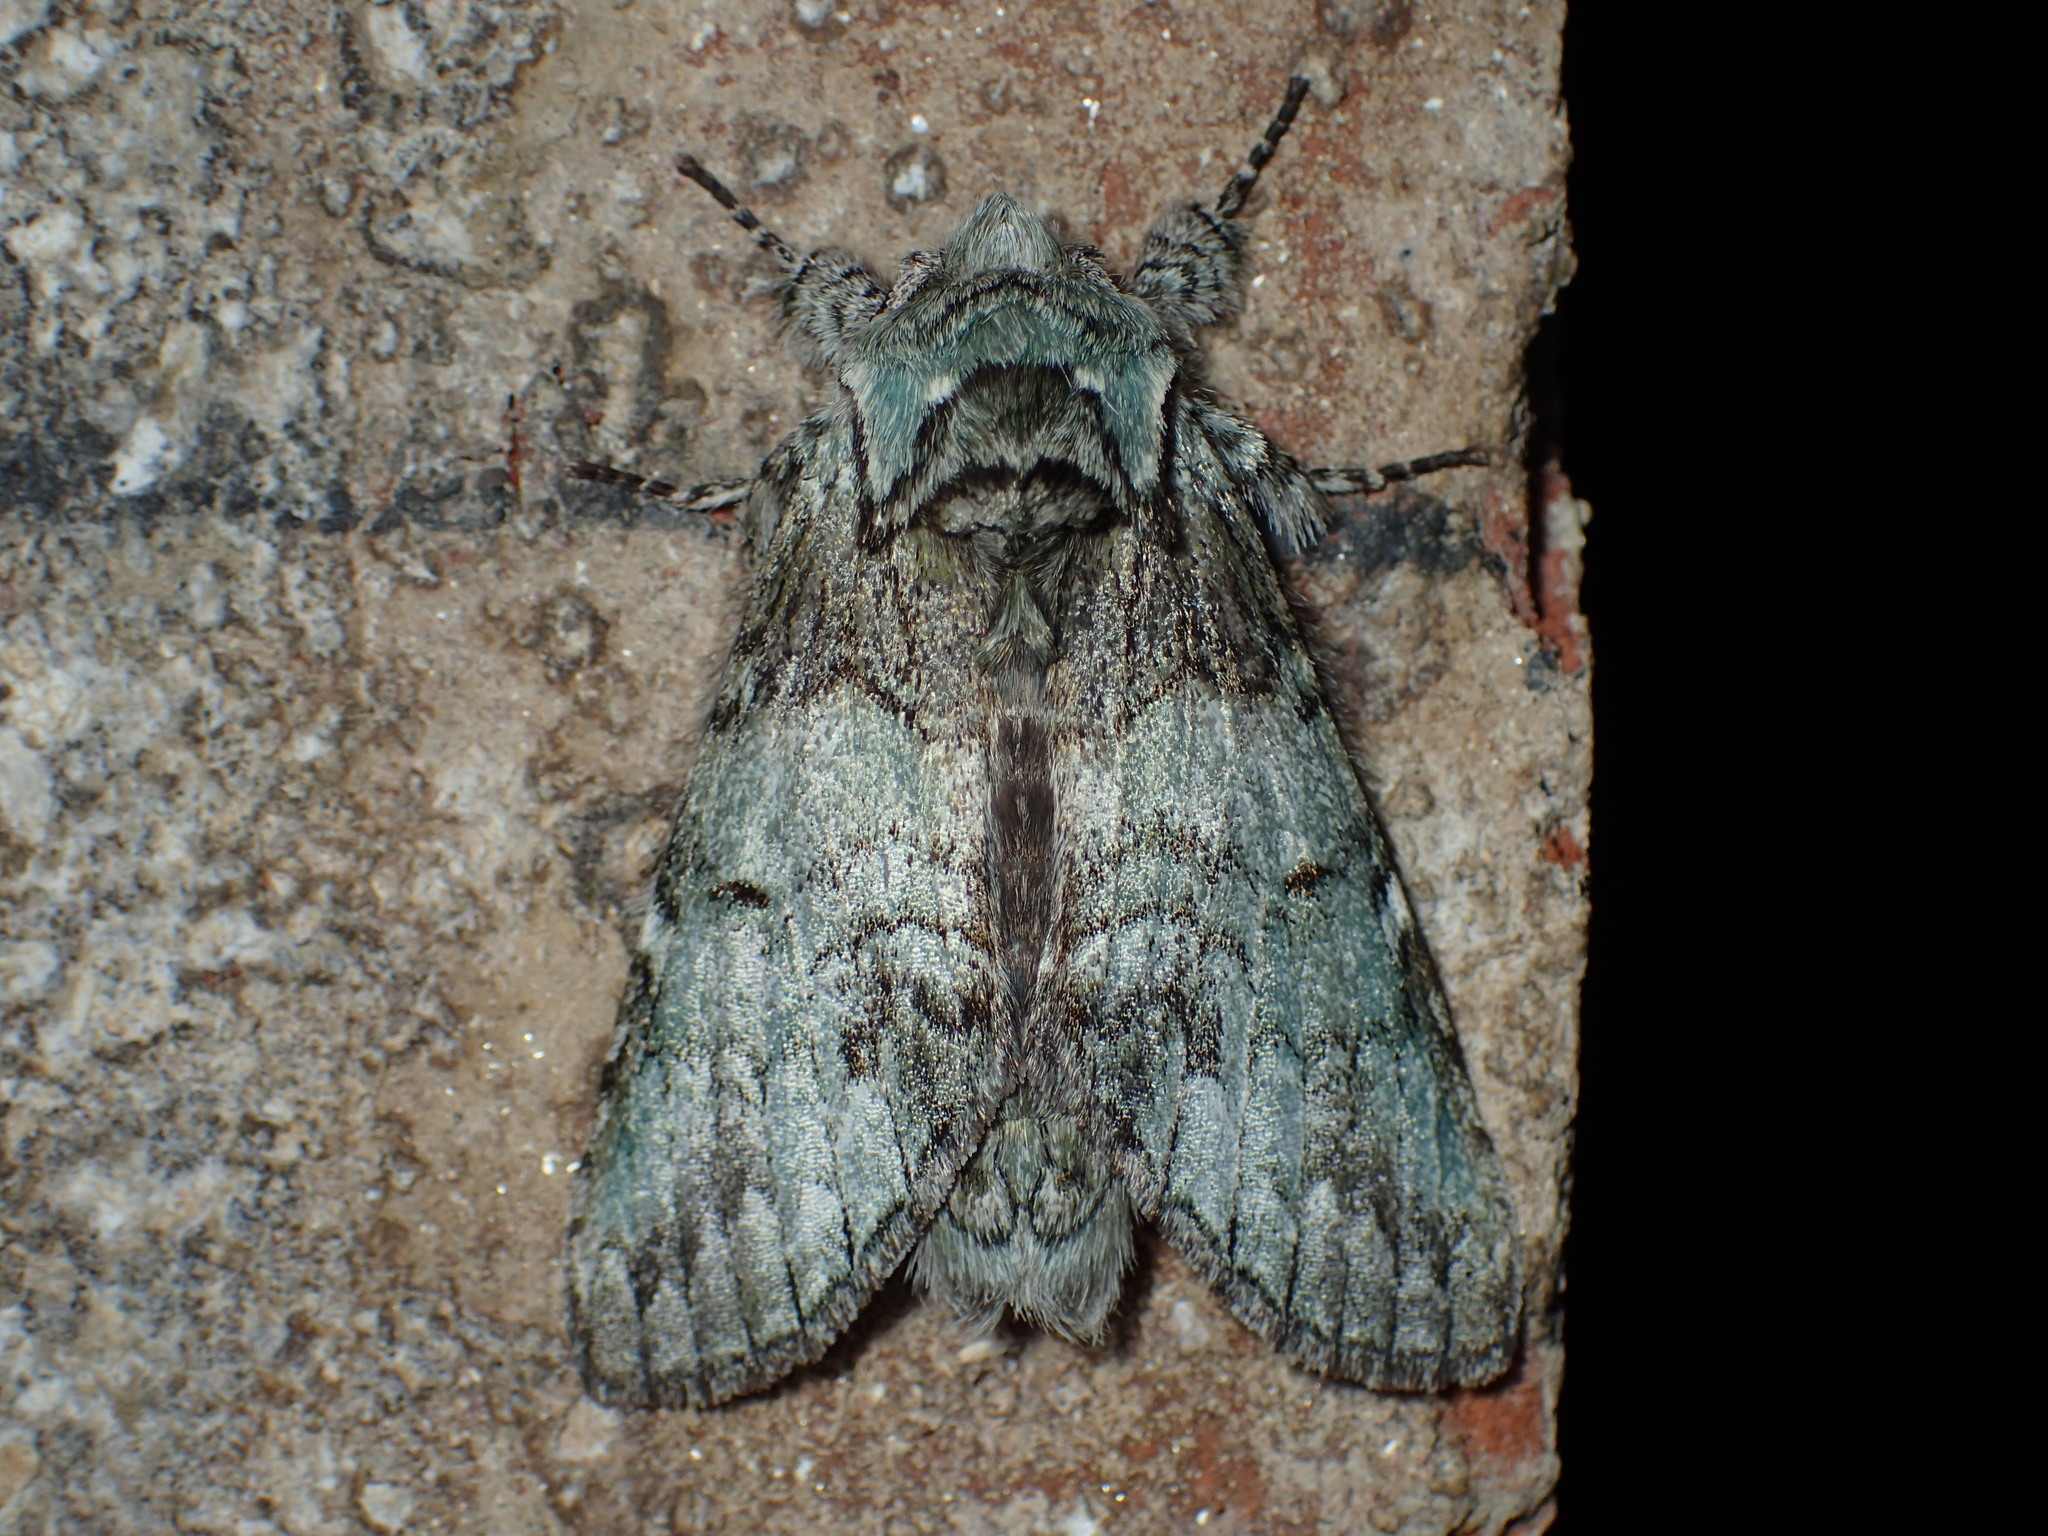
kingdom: Animalia
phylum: Arthropoda
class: Insecta
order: Lepidoptera
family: Notodontidae
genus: Macrurocampa
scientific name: Macrurocampa marthesia
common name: Mottled prominent
